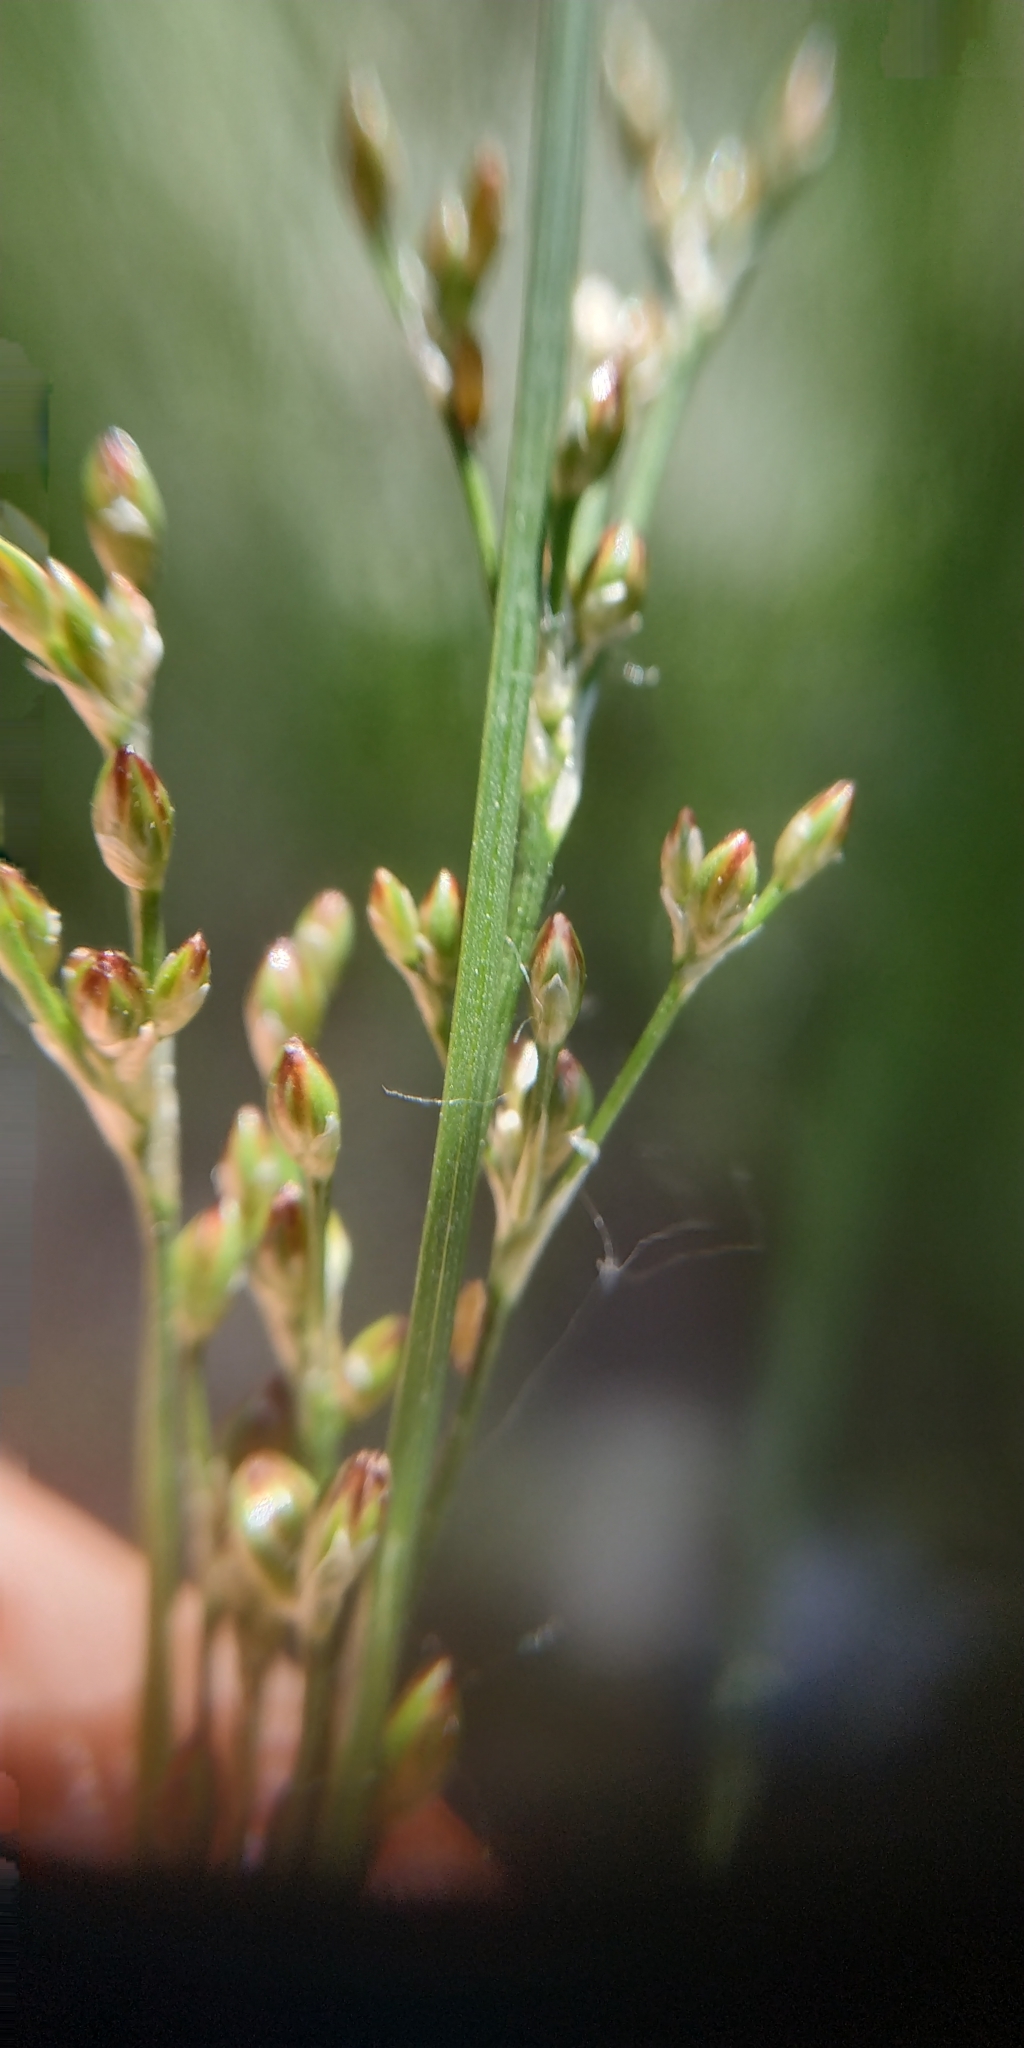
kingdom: Plantae
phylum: Tracheophyta
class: Liliopsida
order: Poales
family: Juncaceae
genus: Juncus
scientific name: Juncus compressus
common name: Round-fruited rush
